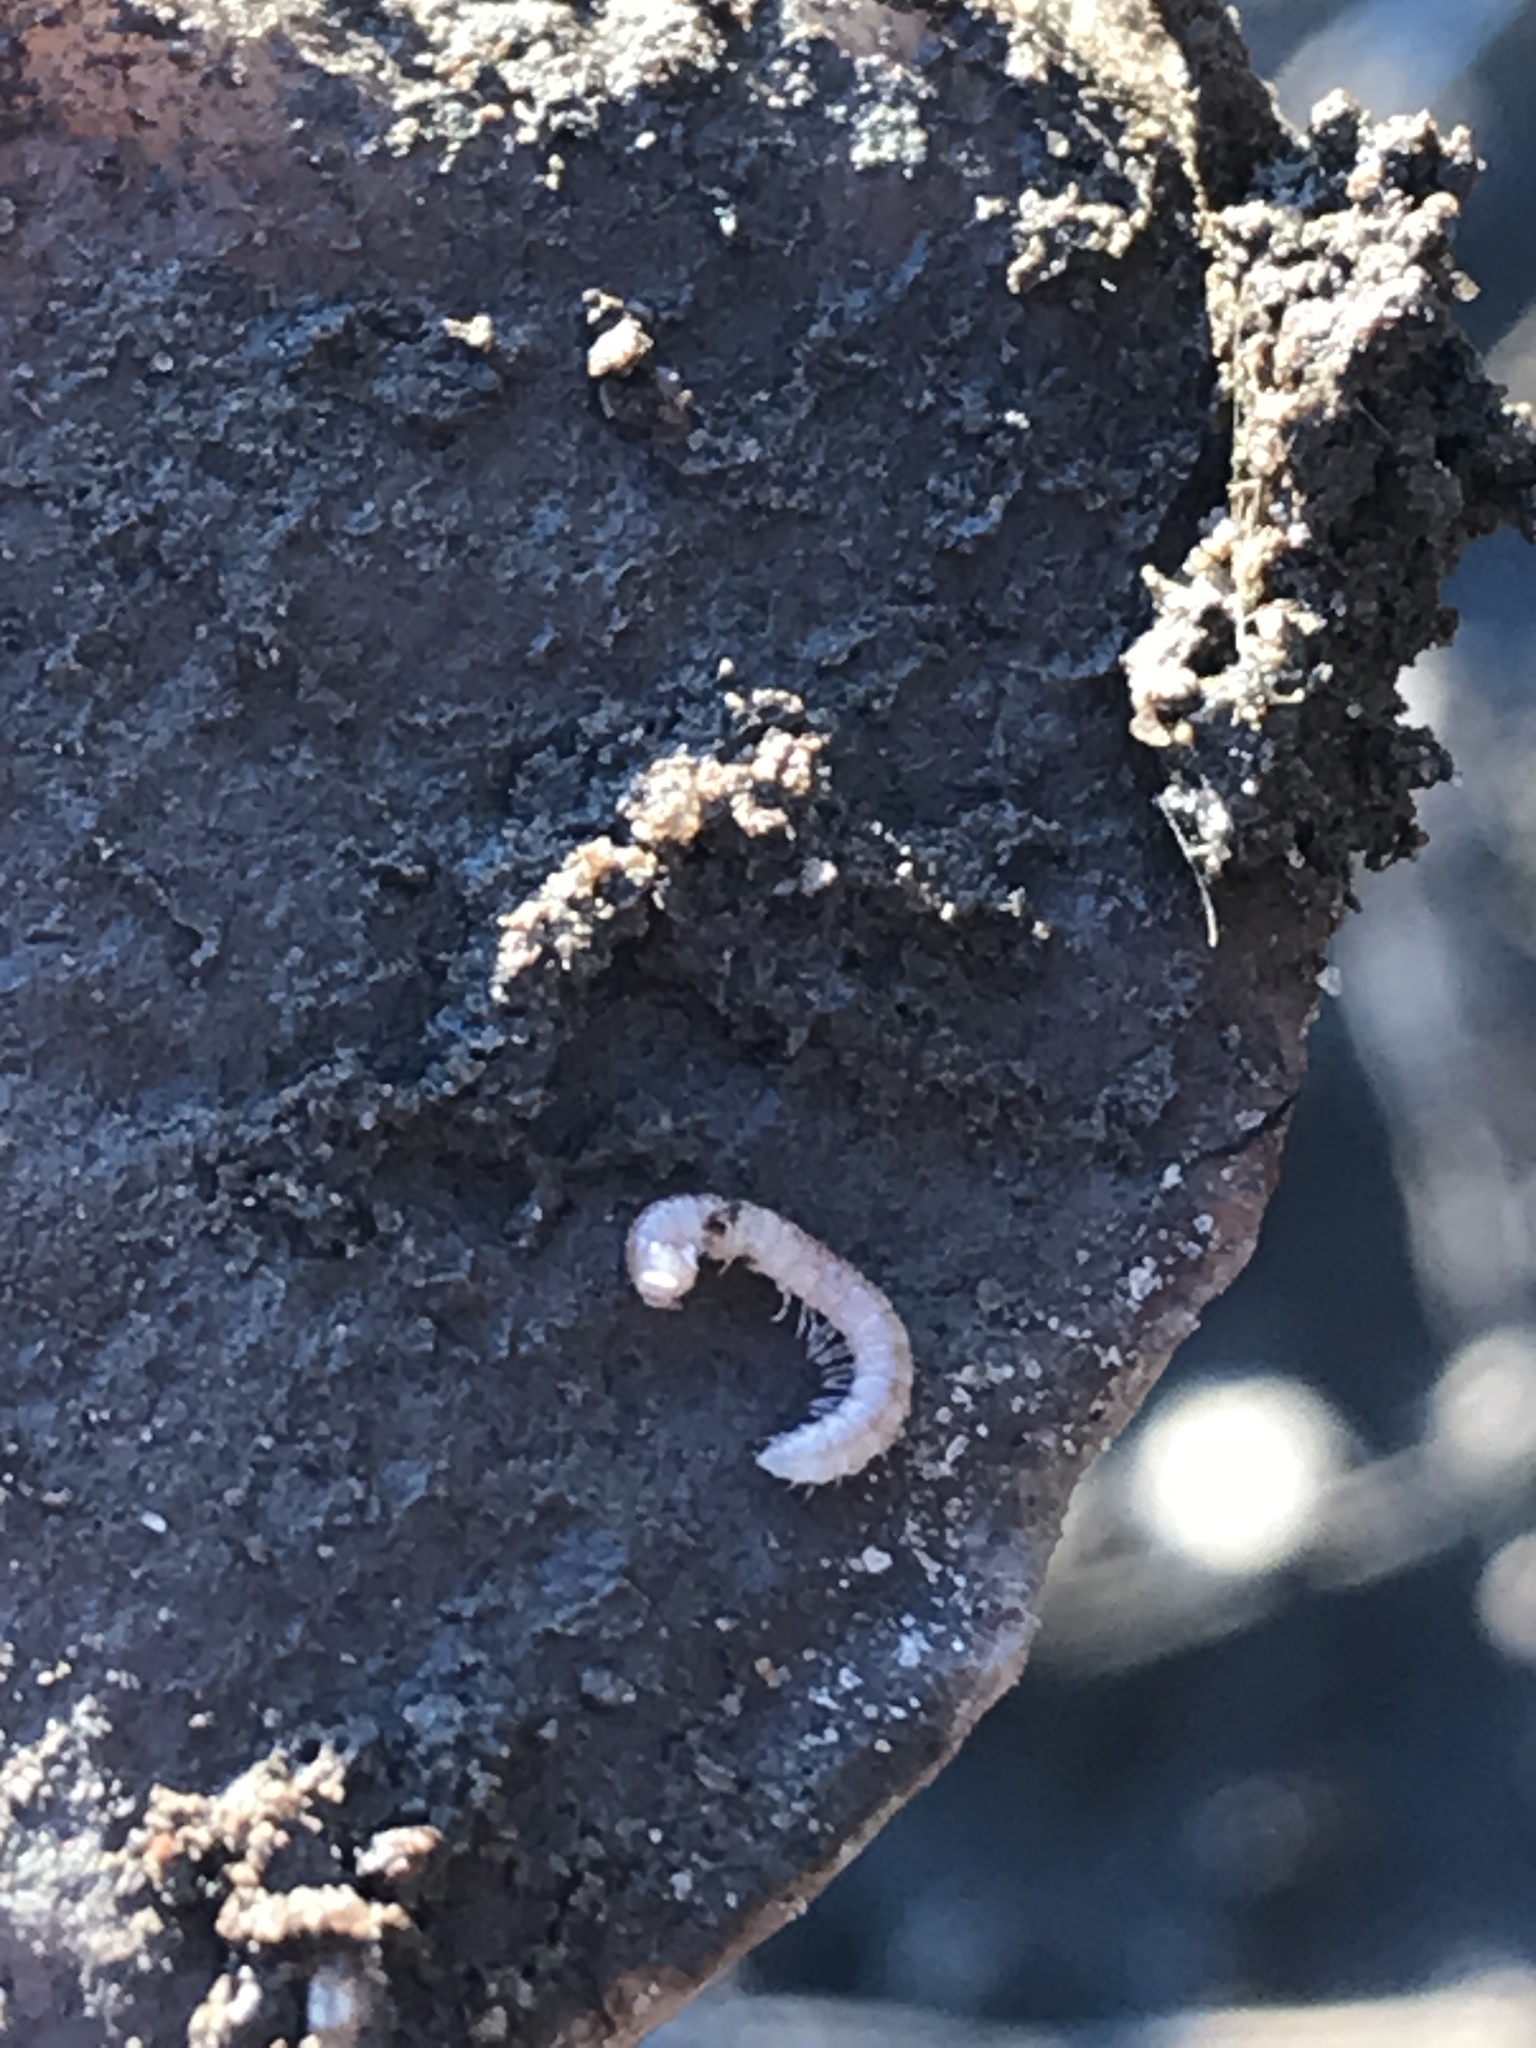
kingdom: Animalia
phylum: Arthropoda
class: Diplopoda
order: Polydesmida
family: Paradoxosomatidae
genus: Oxidus
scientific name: Oxidus gracilis
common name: Greenhouse millipede
